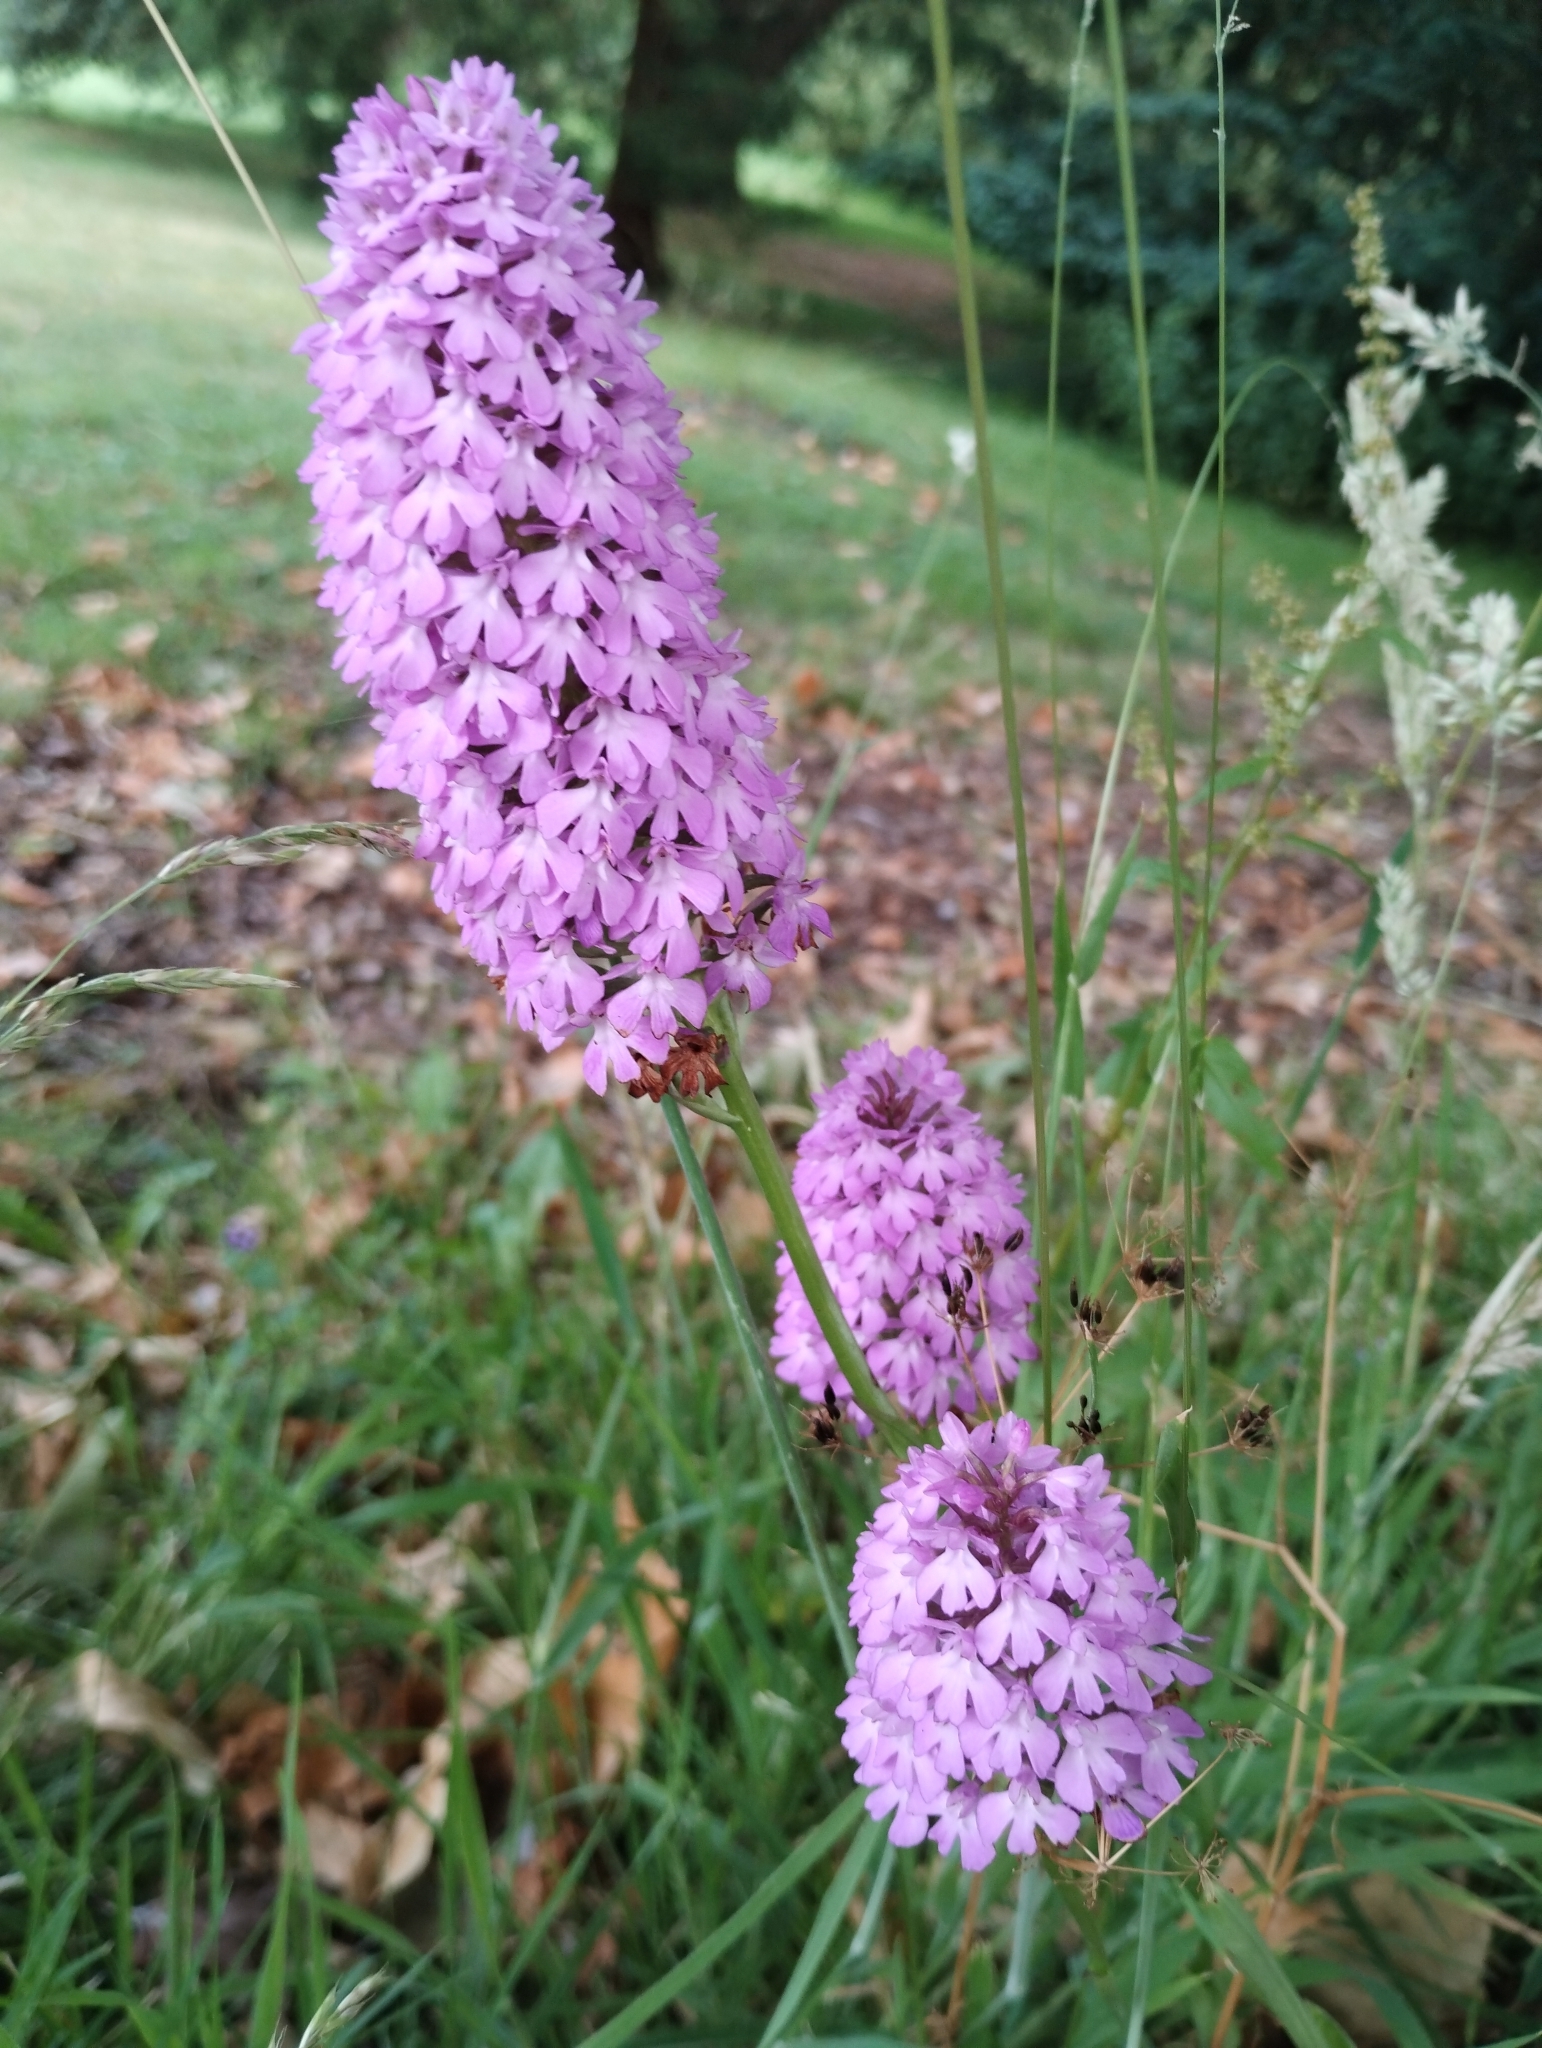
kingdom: Plantae
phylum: Tracheophyta
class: Liliopsida
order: Asparagales
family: Orchidaceae
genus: Anacamptis
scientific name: Anacamptis pyramidalis
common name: Pyramidal orchid
